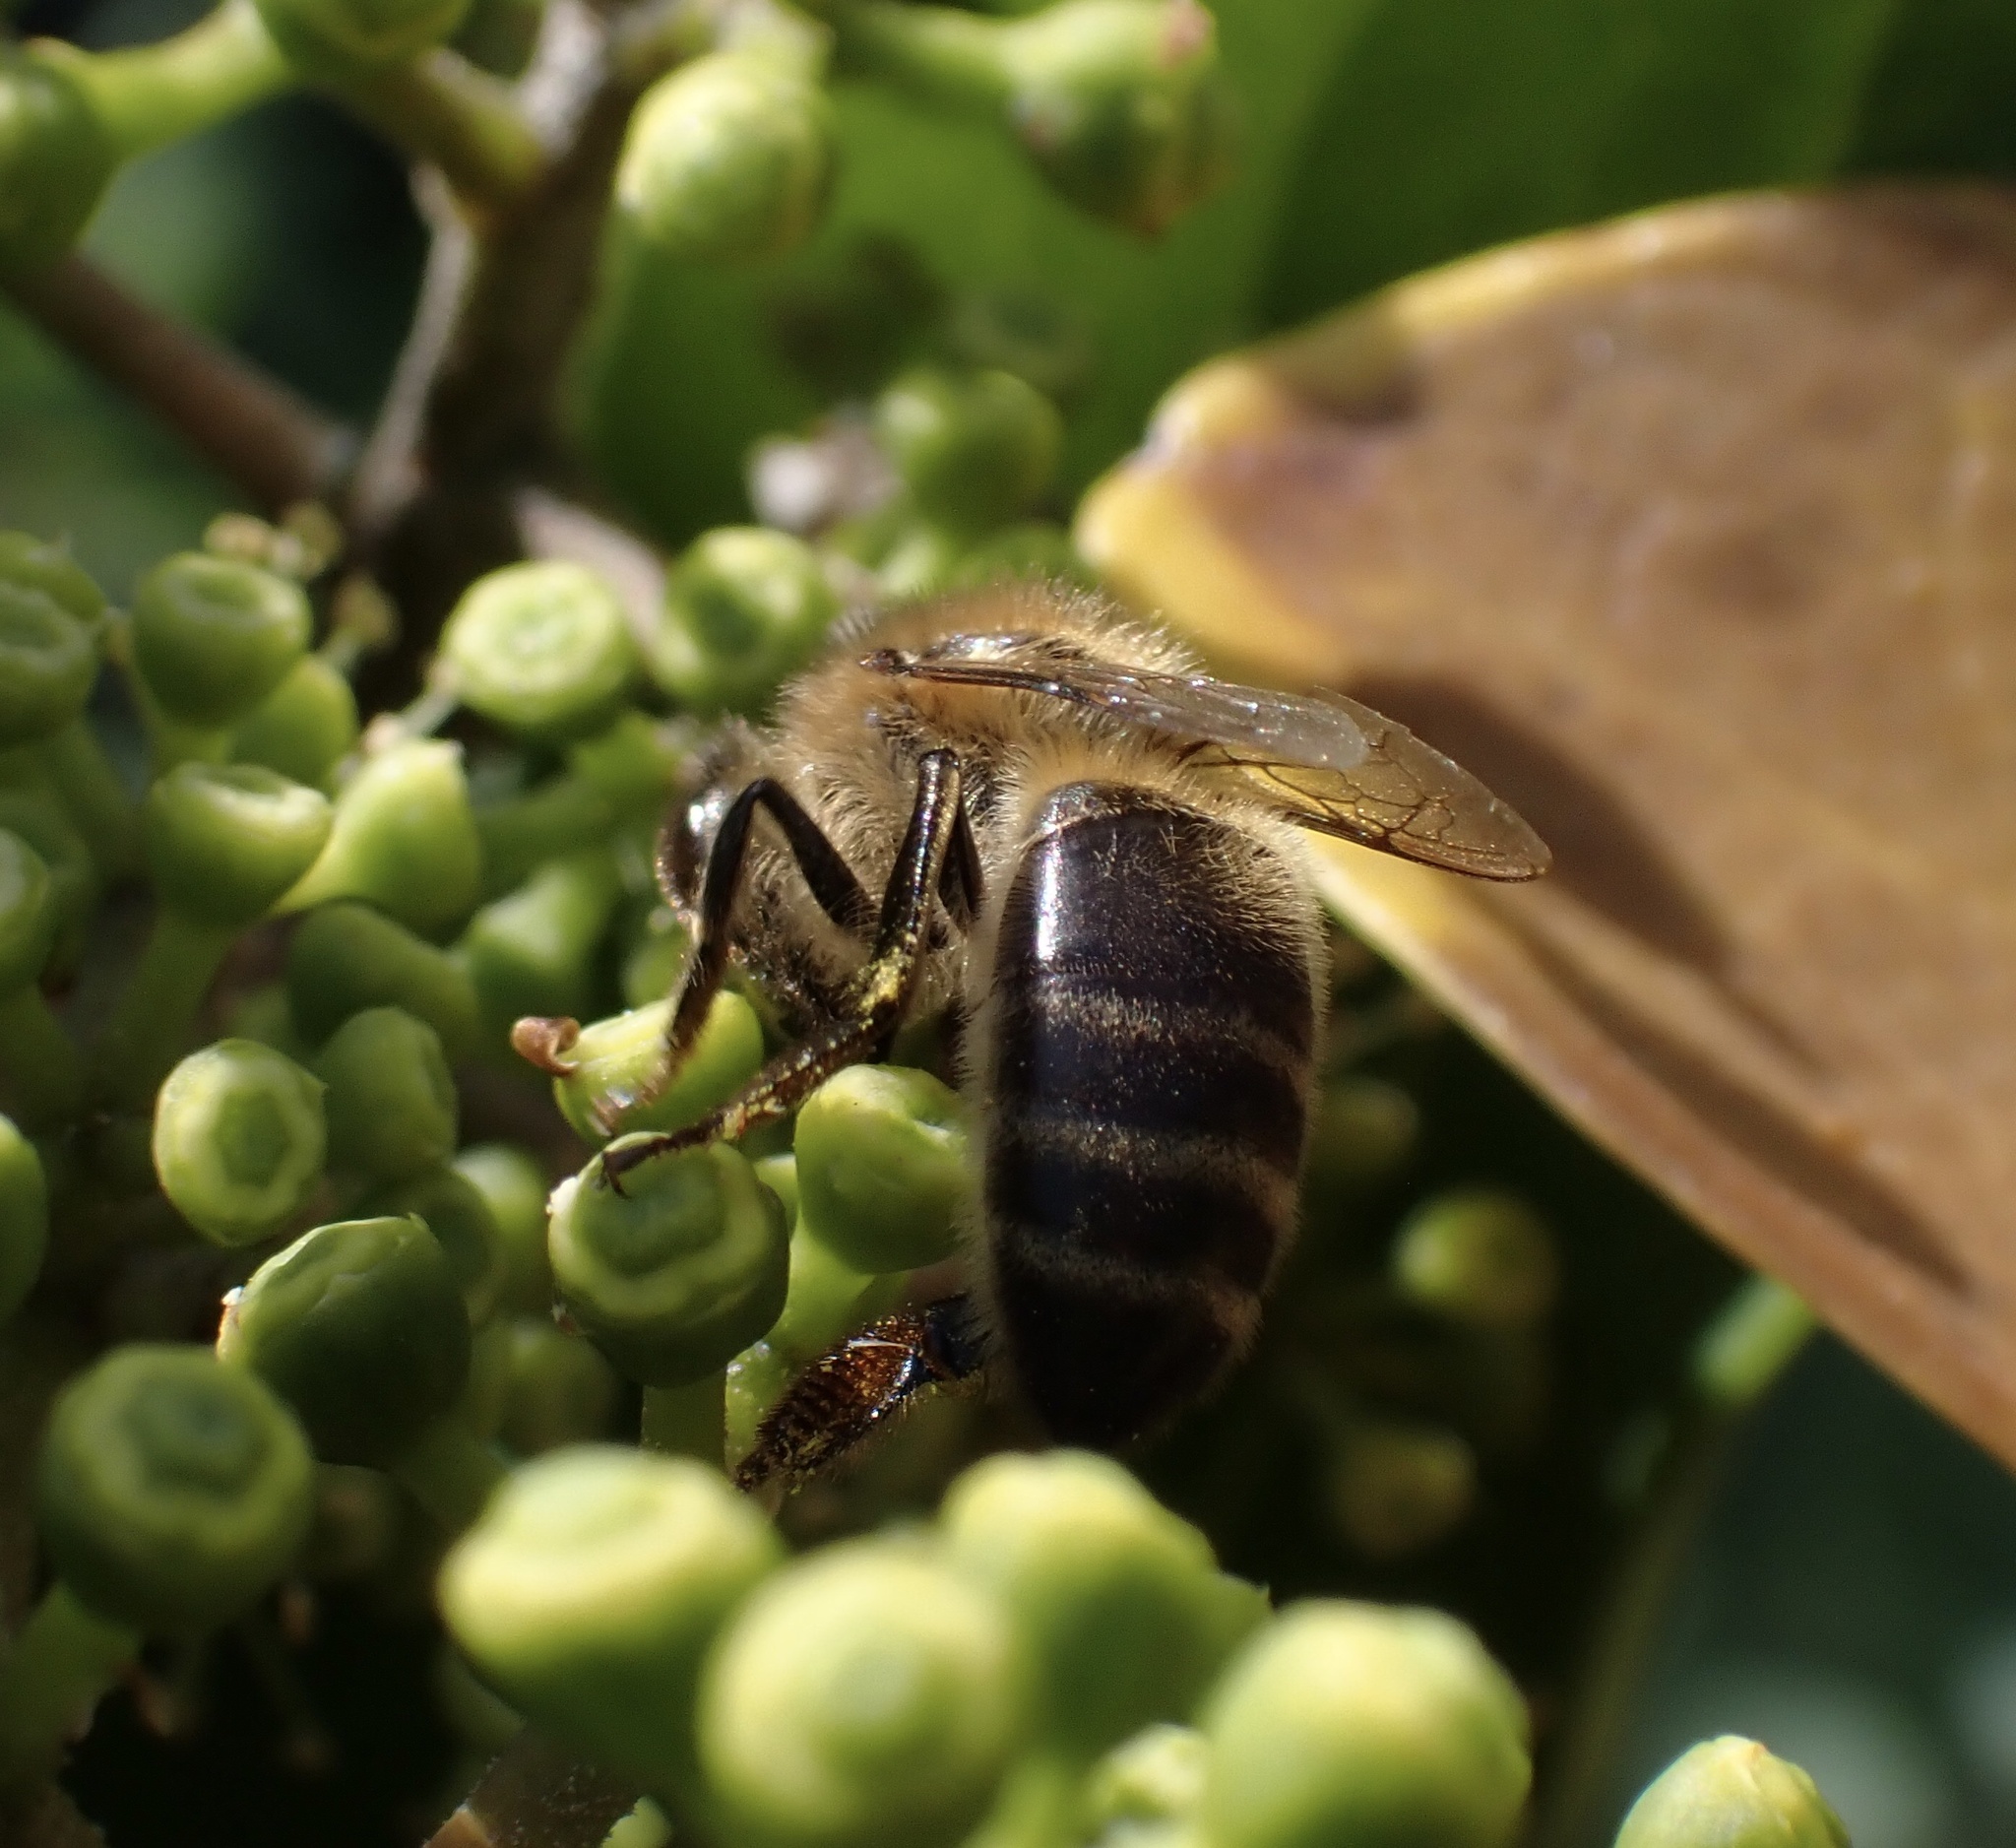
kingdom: Animalia
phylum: Arthropoda
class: Insecta
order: Hymenoptera
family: Apidae
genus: Apis
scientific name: Apis mellifera
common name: Honey bee
